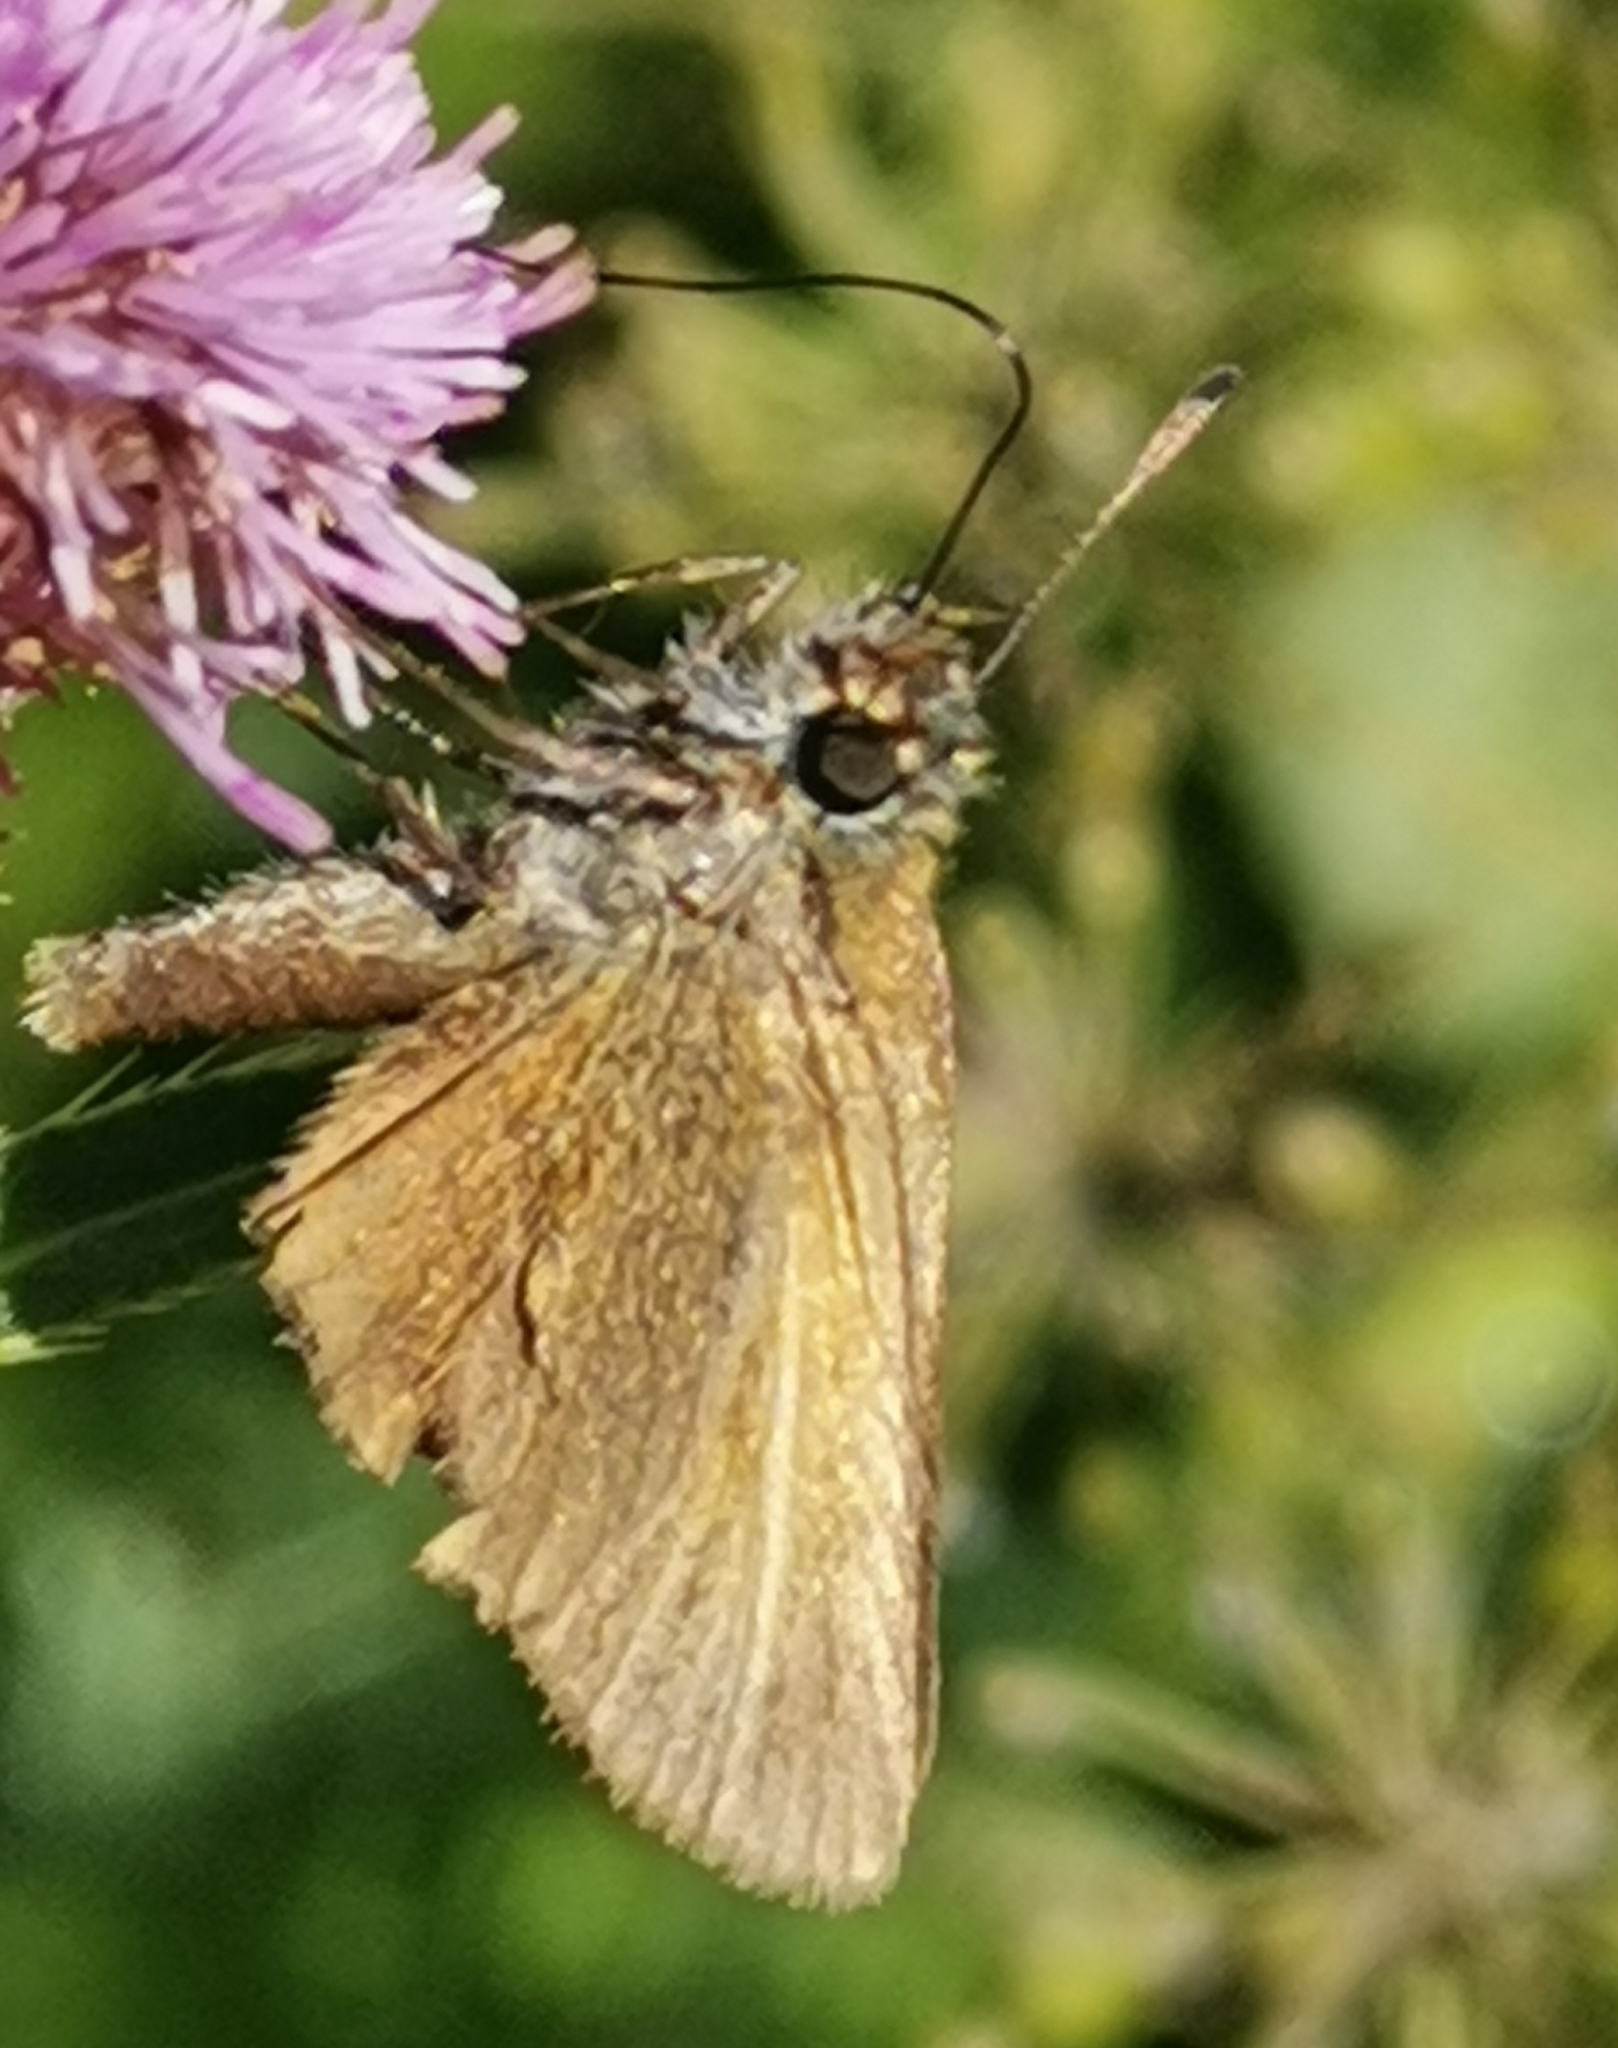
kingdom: Animalia
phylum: Arthropoda
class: Insecta
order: Lepidoptera
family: Hesperiidae
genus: Thymelicus
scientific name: Thymelicus lineola
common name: Essex skipper
